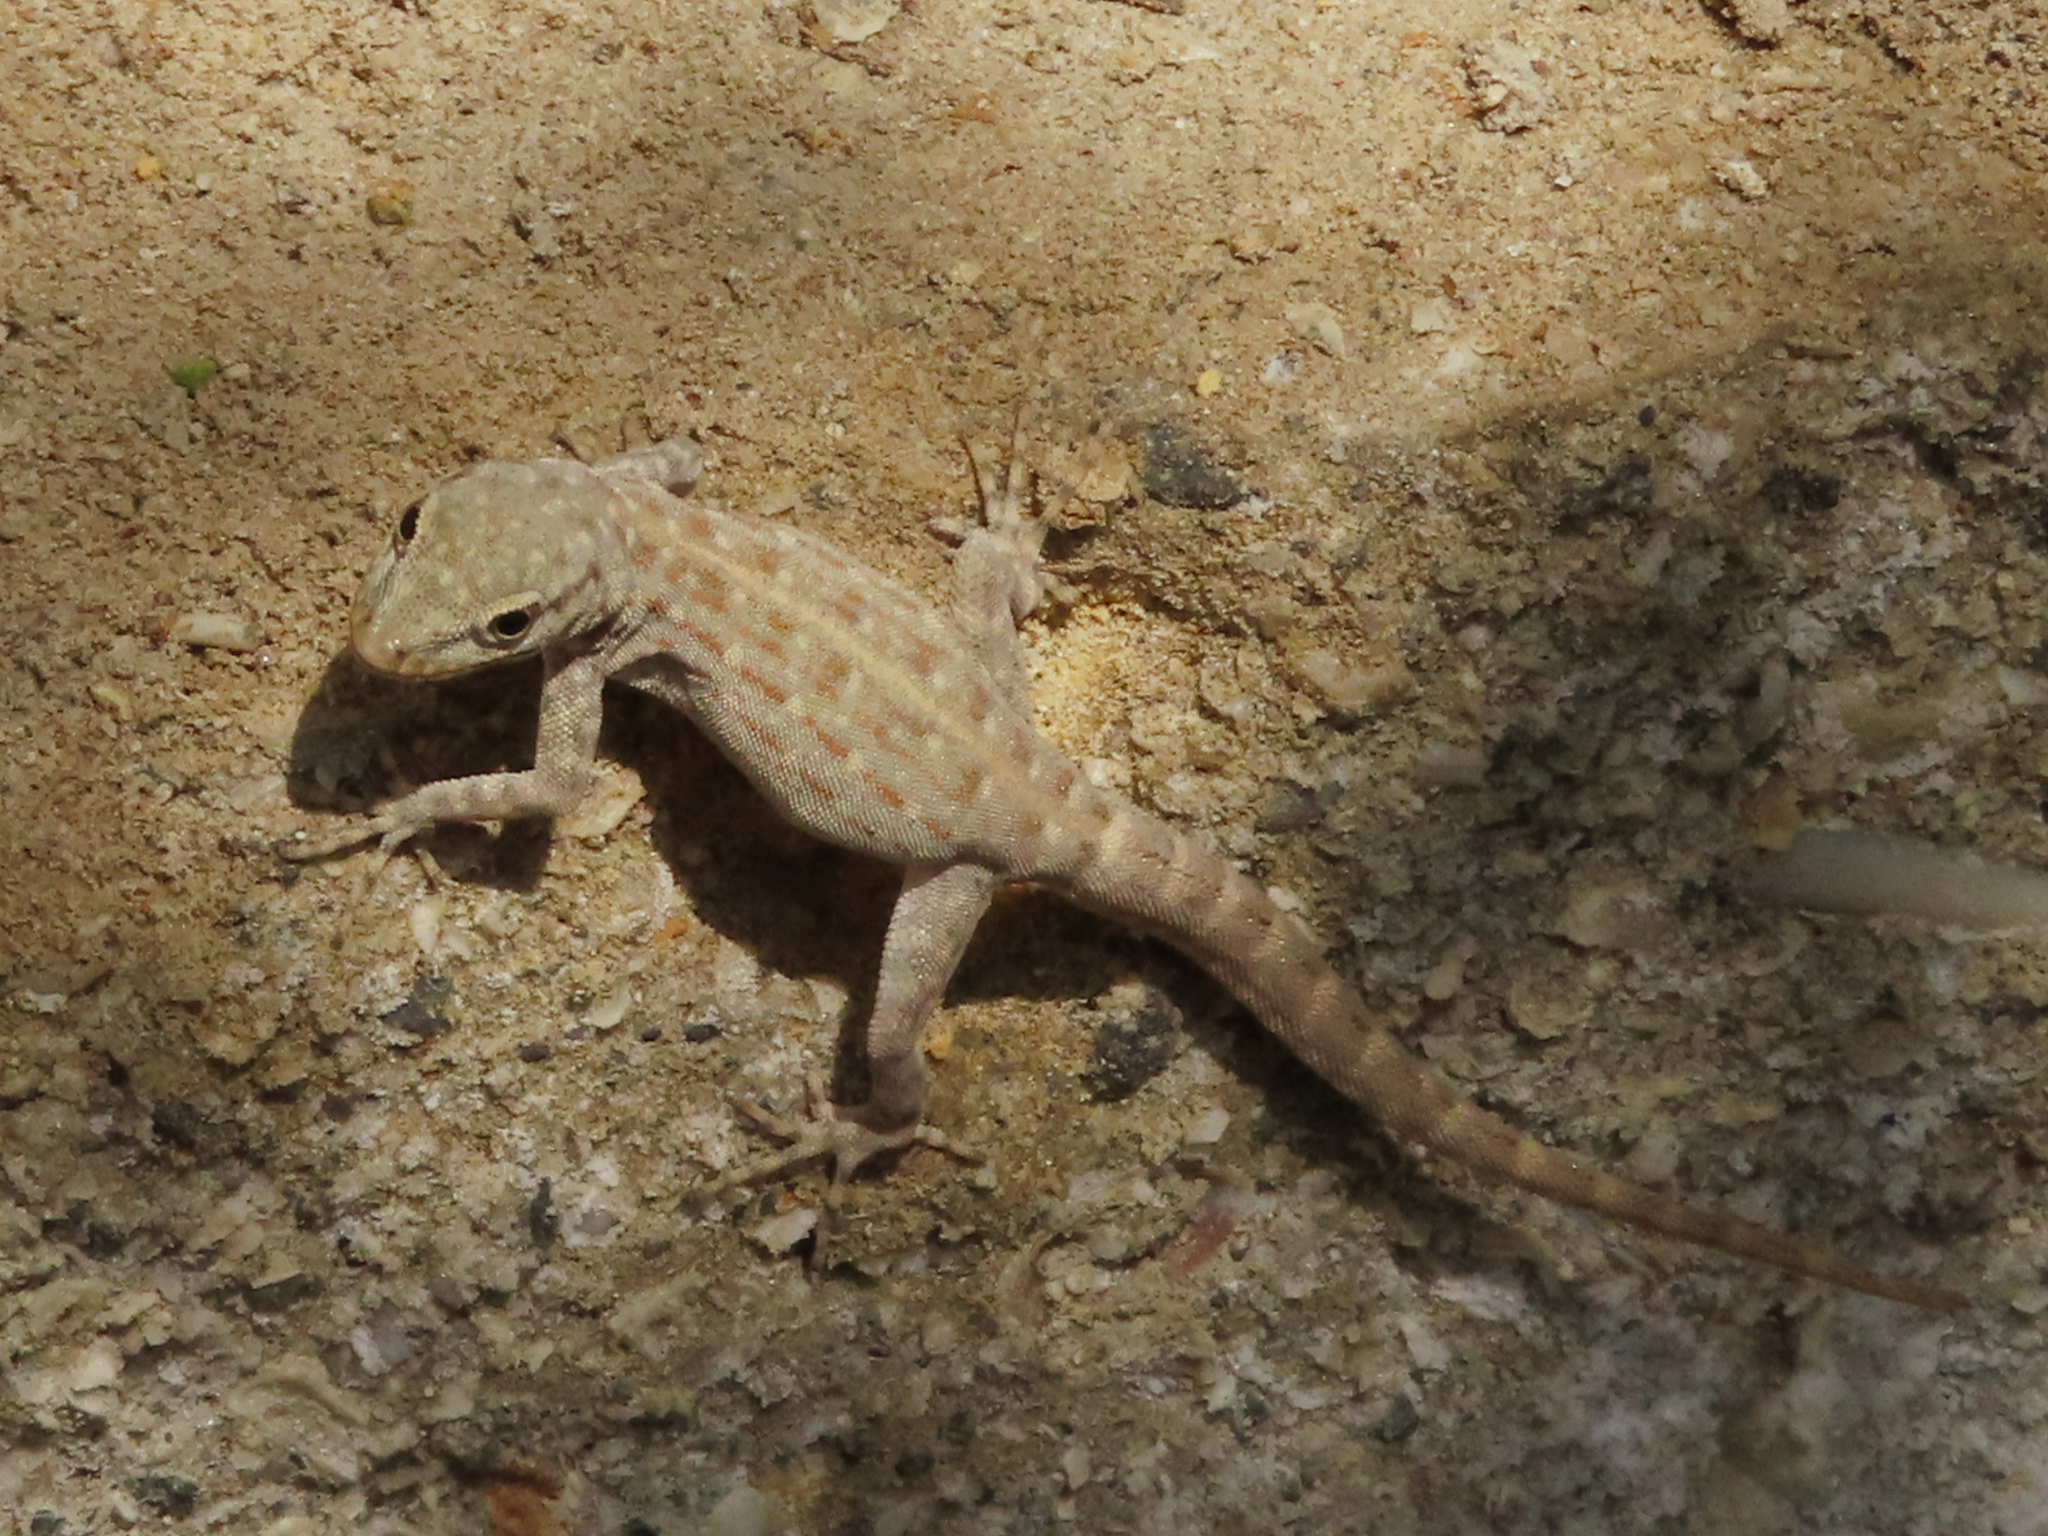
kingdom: Animalia
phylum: Chordata
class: Squamata
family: Sphaerodactylidae
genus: Pristurus
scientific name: Pristurus rupestris
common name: Blanford’s semaphore gecko
